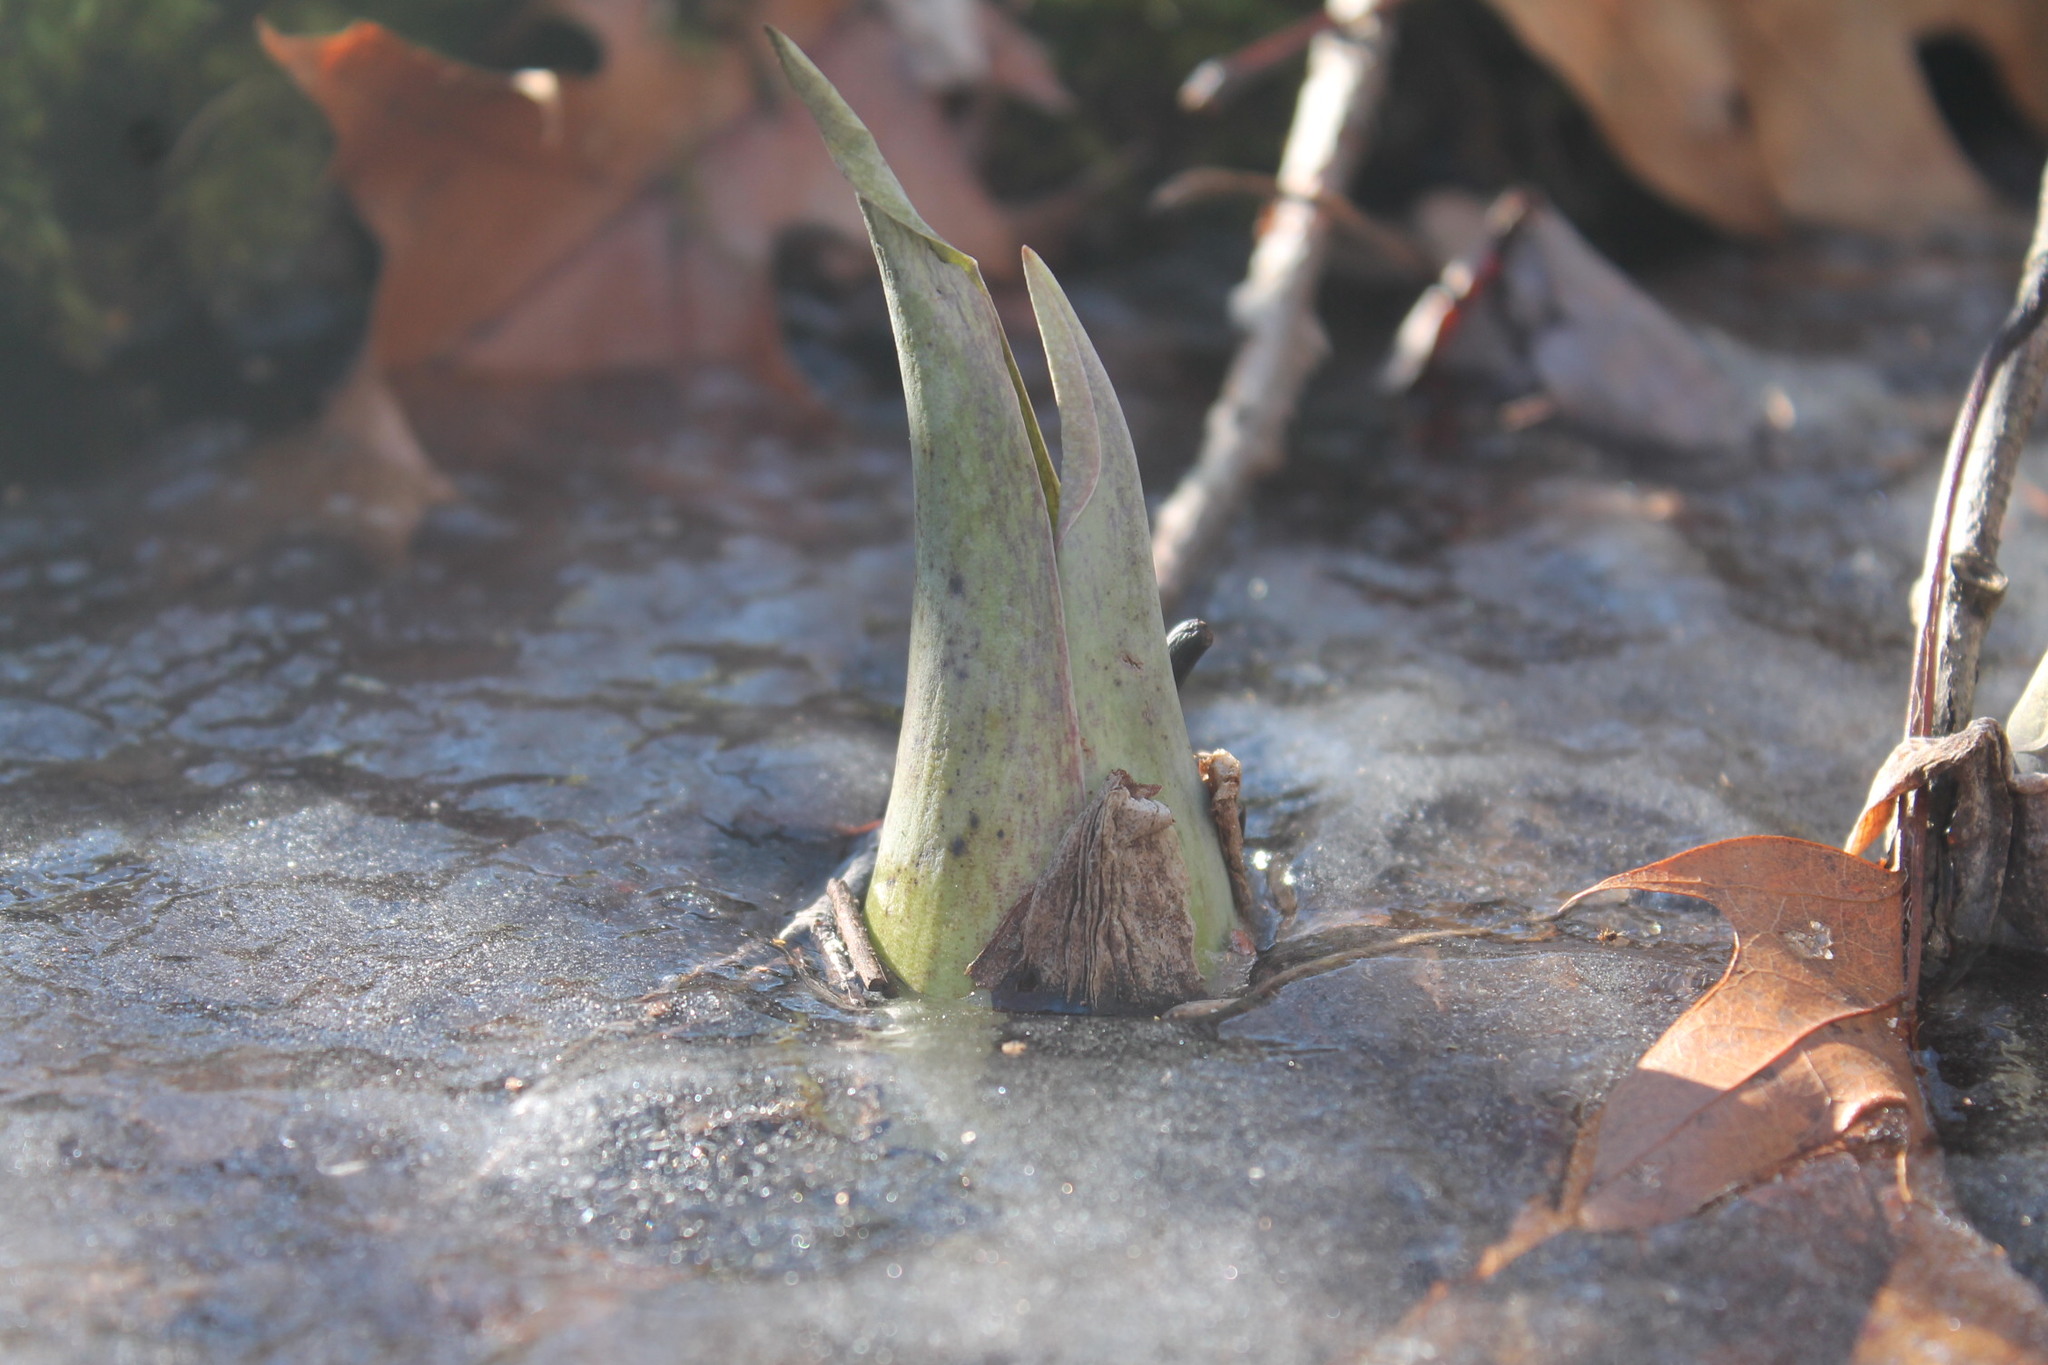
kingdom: Plantae
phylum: Tracheophyta
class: Liliopsida
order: Alismatales
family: Araceae
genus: Symplocarpus
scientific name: Symplocarpus foetidus
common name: Eastern skunk cabbage
